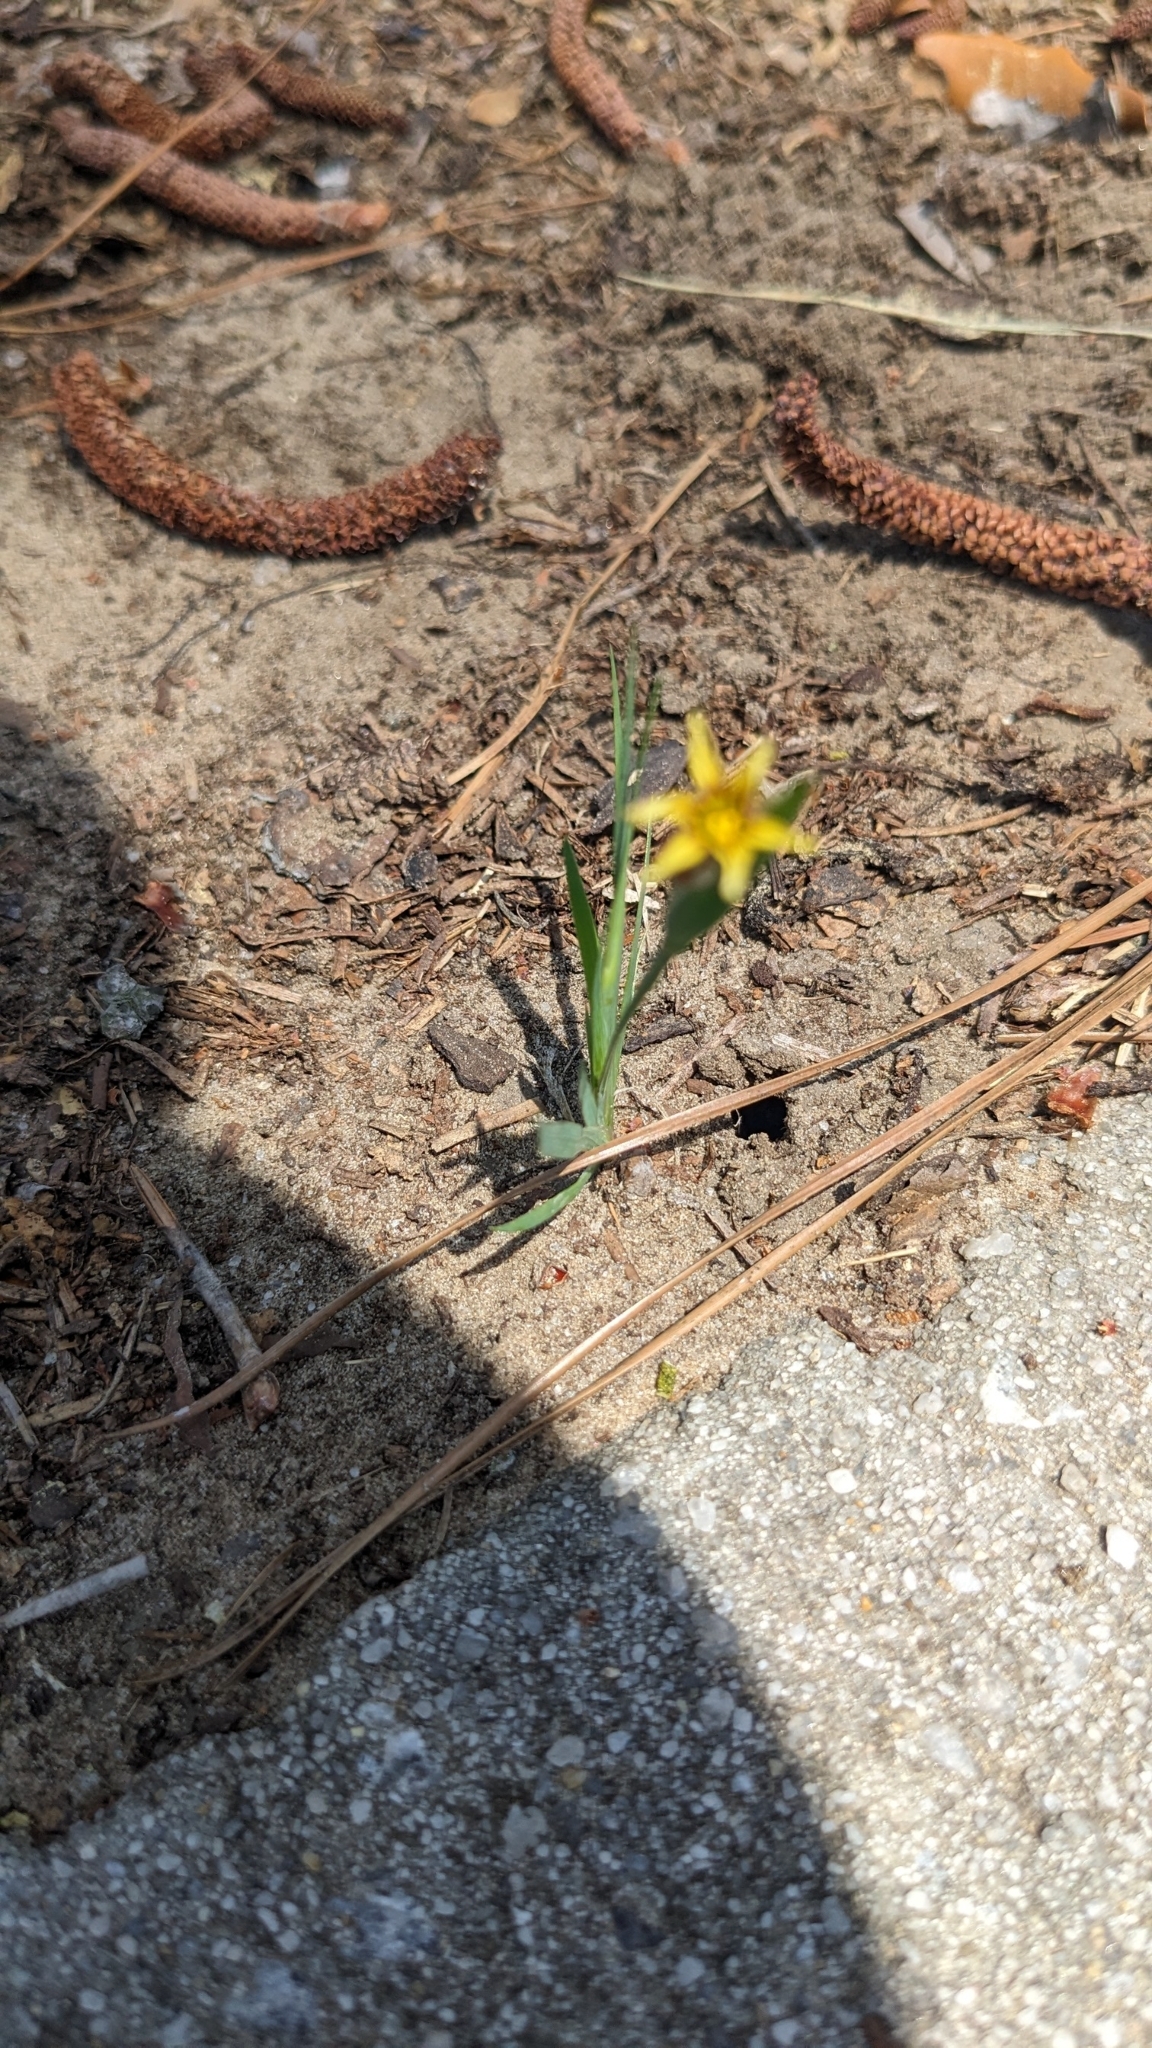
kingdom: Plantae
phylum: Tracheophyta
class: Liliopsida
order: Asparagales
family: Iridaceae
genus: Sisyrinchium
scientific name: Sisyrinchium micranthum
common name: Bermuda pigroot
